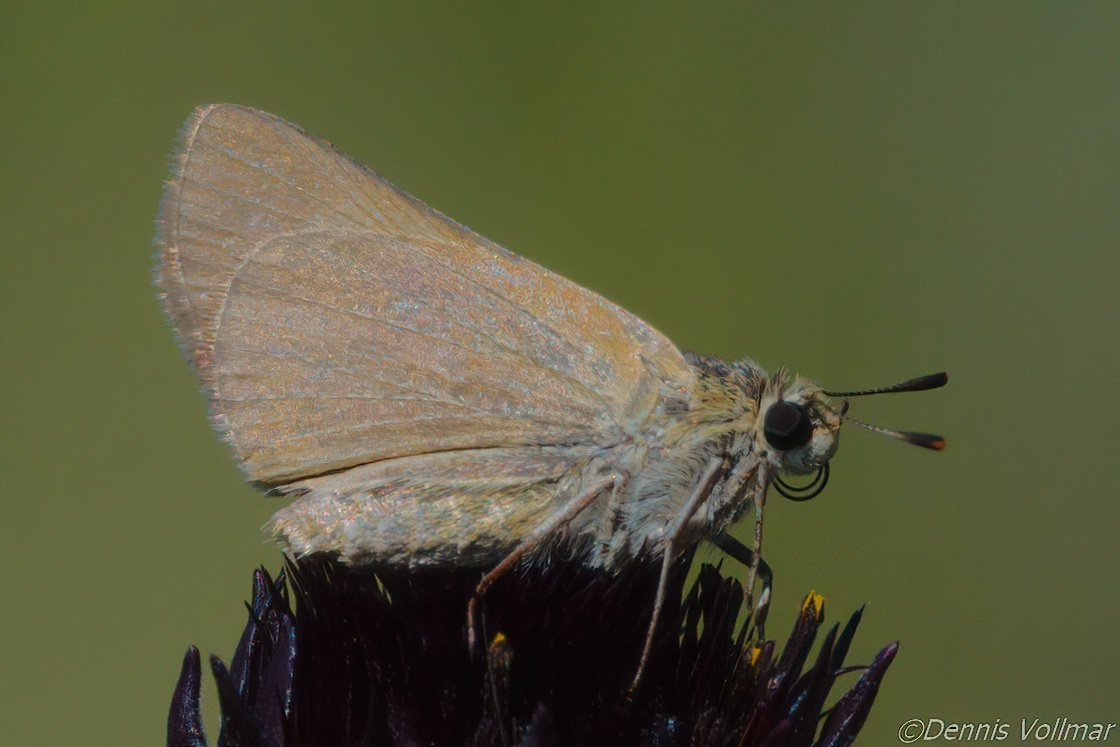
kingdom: Animalia
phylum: Arthropoda
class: Insecta
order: Lepidoptera
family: Hesperiidae
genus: Atrytone
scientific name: Atrytone arogos
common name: Arogos skipper
